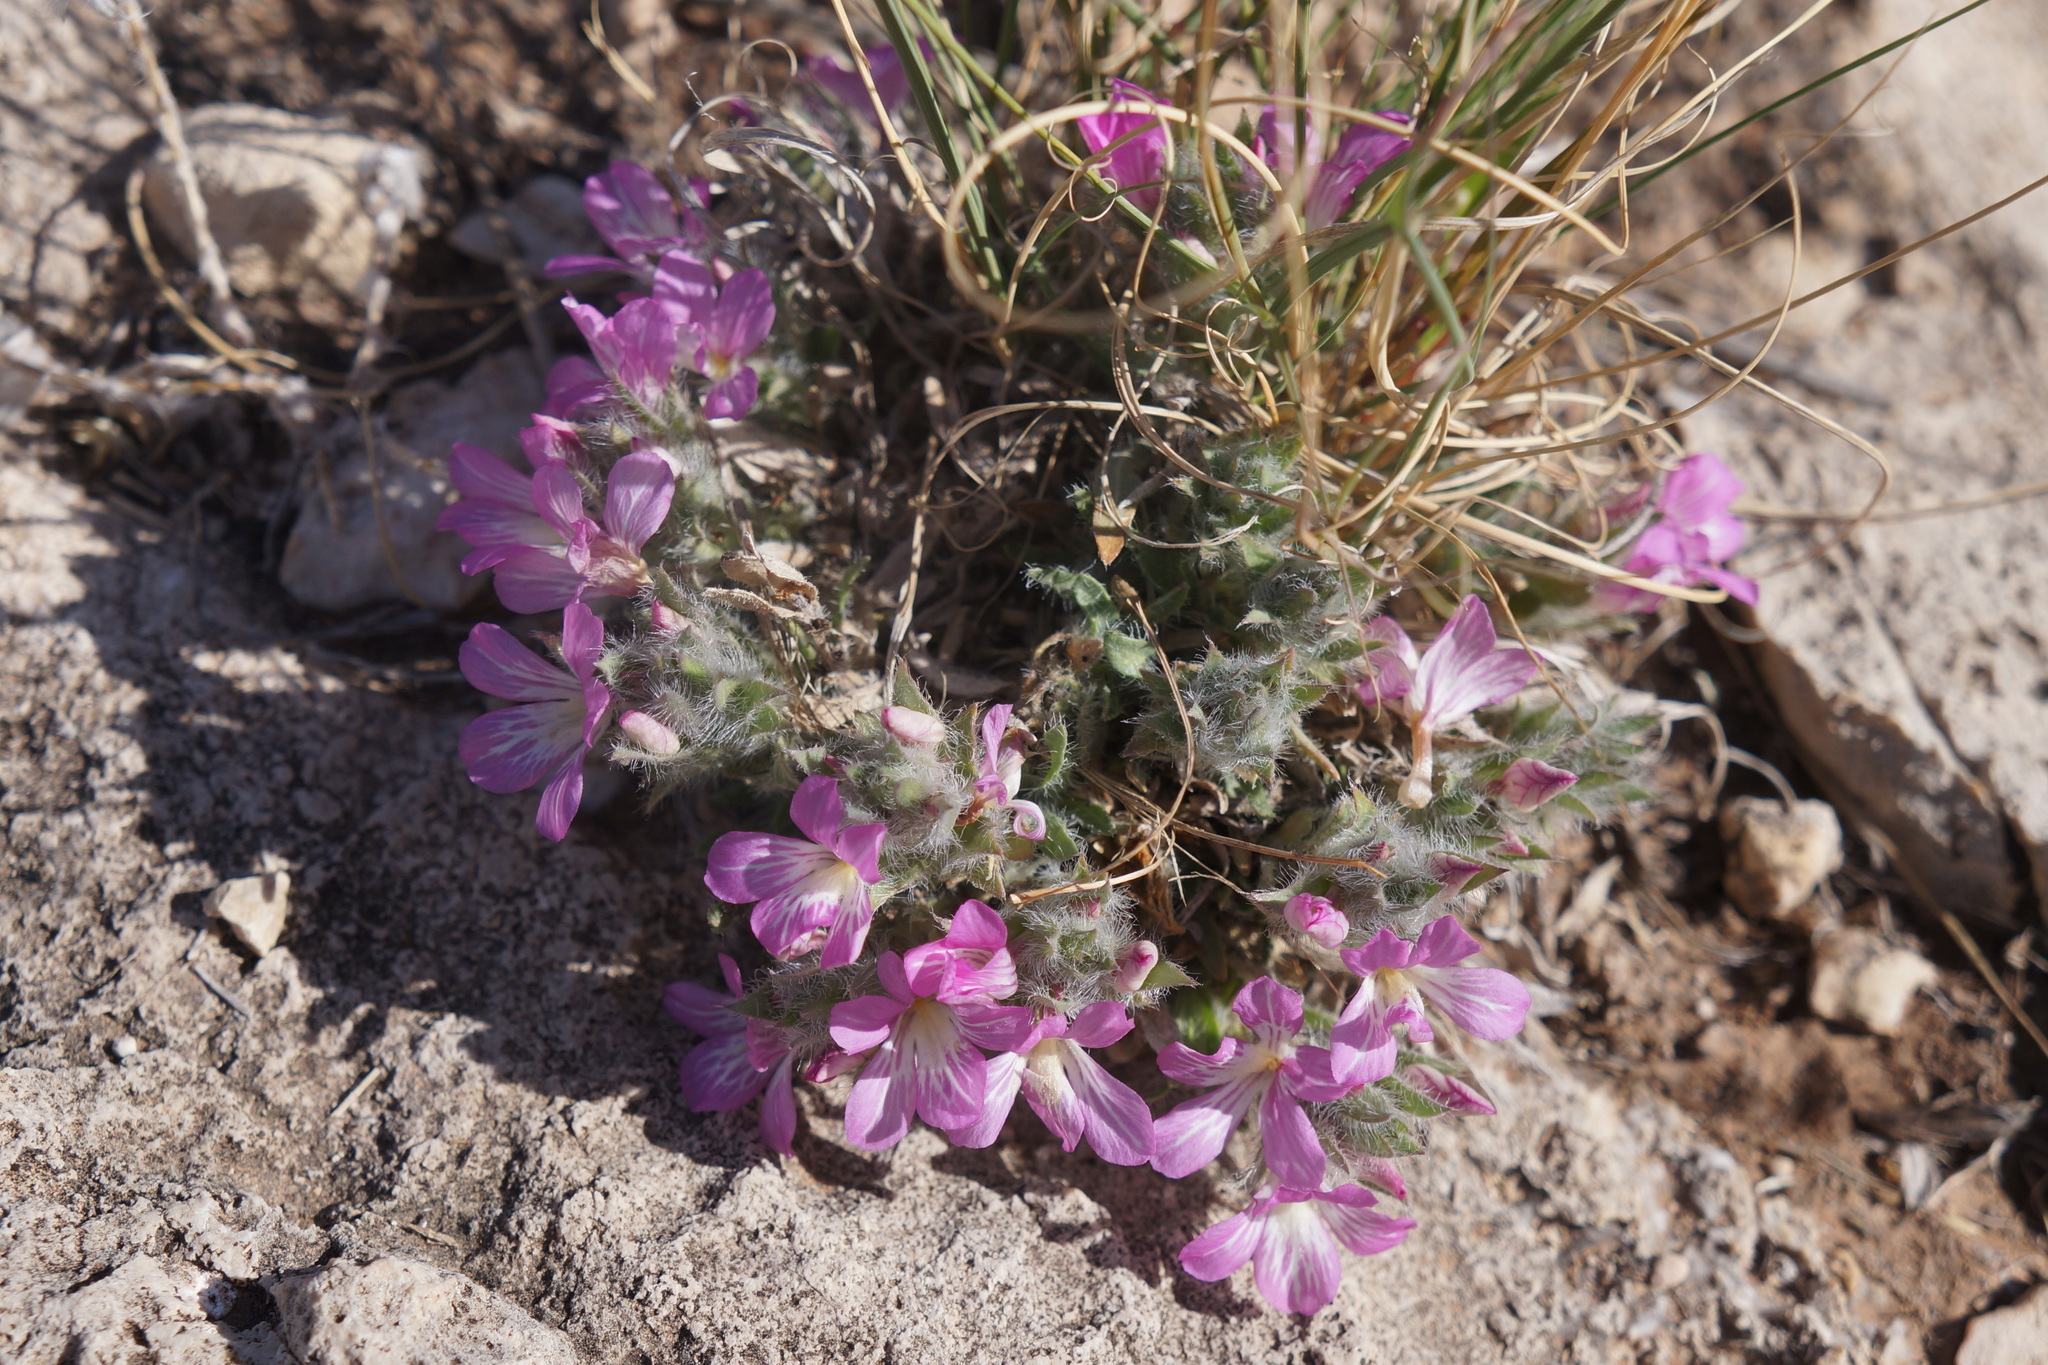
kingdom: Plantae
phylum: Tracheophyta
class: Magnoliopsida
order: Lamiales
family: Acanthaceae
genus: Stenandrium
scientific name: Stenandrium barbatum
